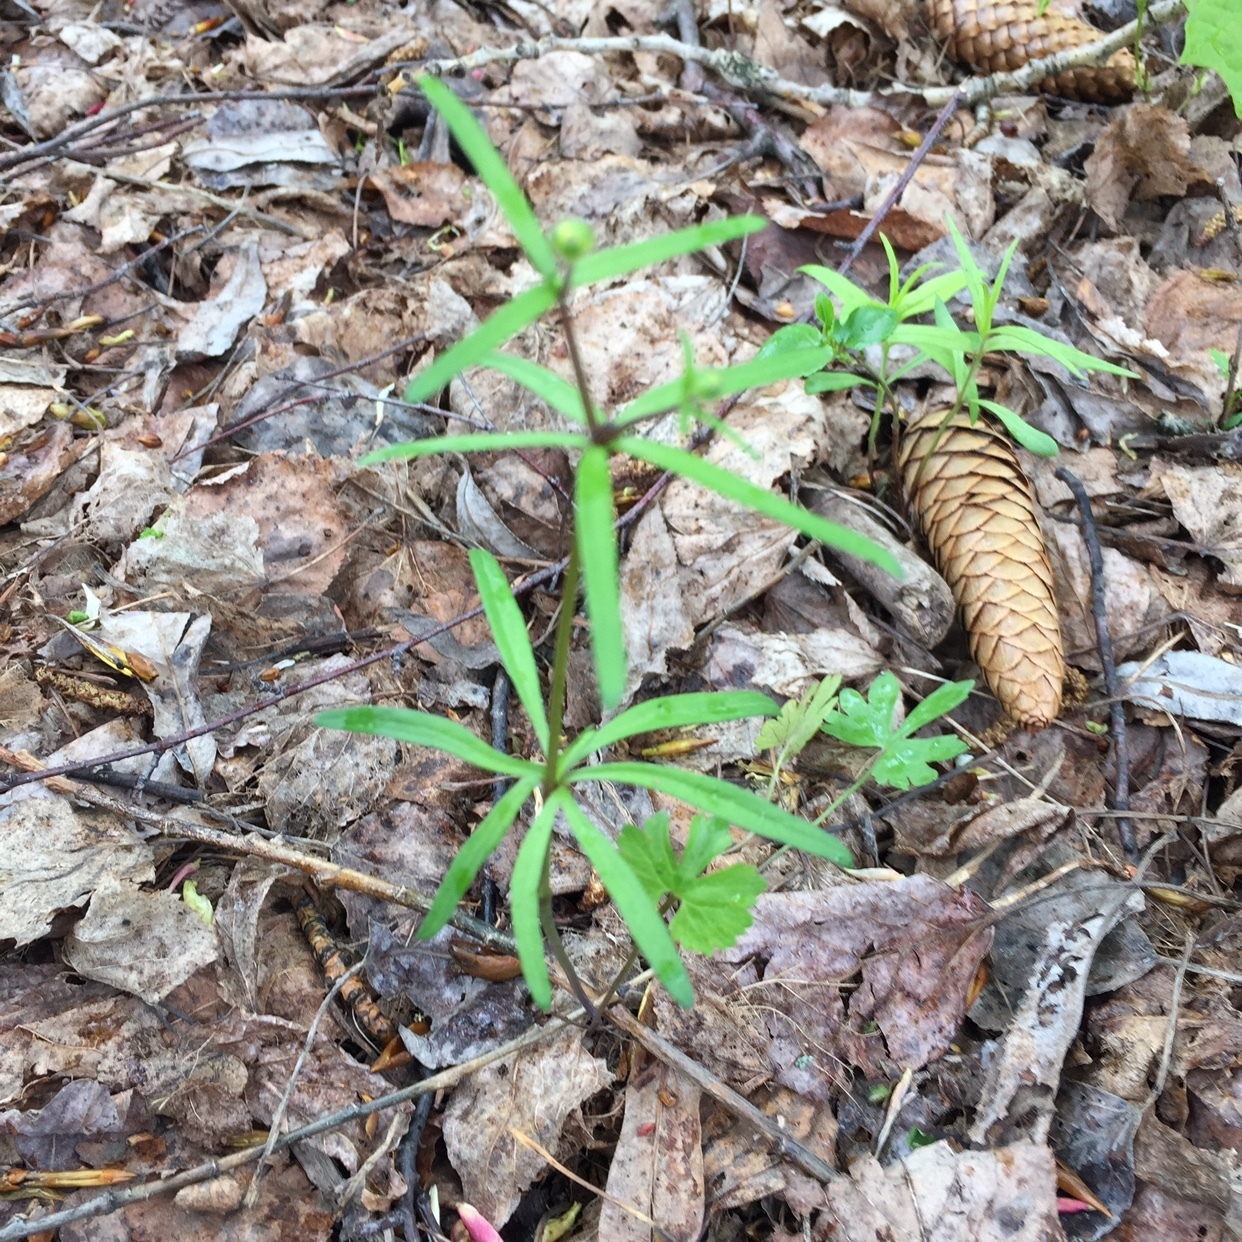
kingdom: Plantae
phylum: Tracheophyta
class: Magnoliopsida
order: Ranunculales
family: Ranunculaceae
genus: Ranunculus
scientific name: Ranunculus auricomus
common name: Goldilocks buttercup
